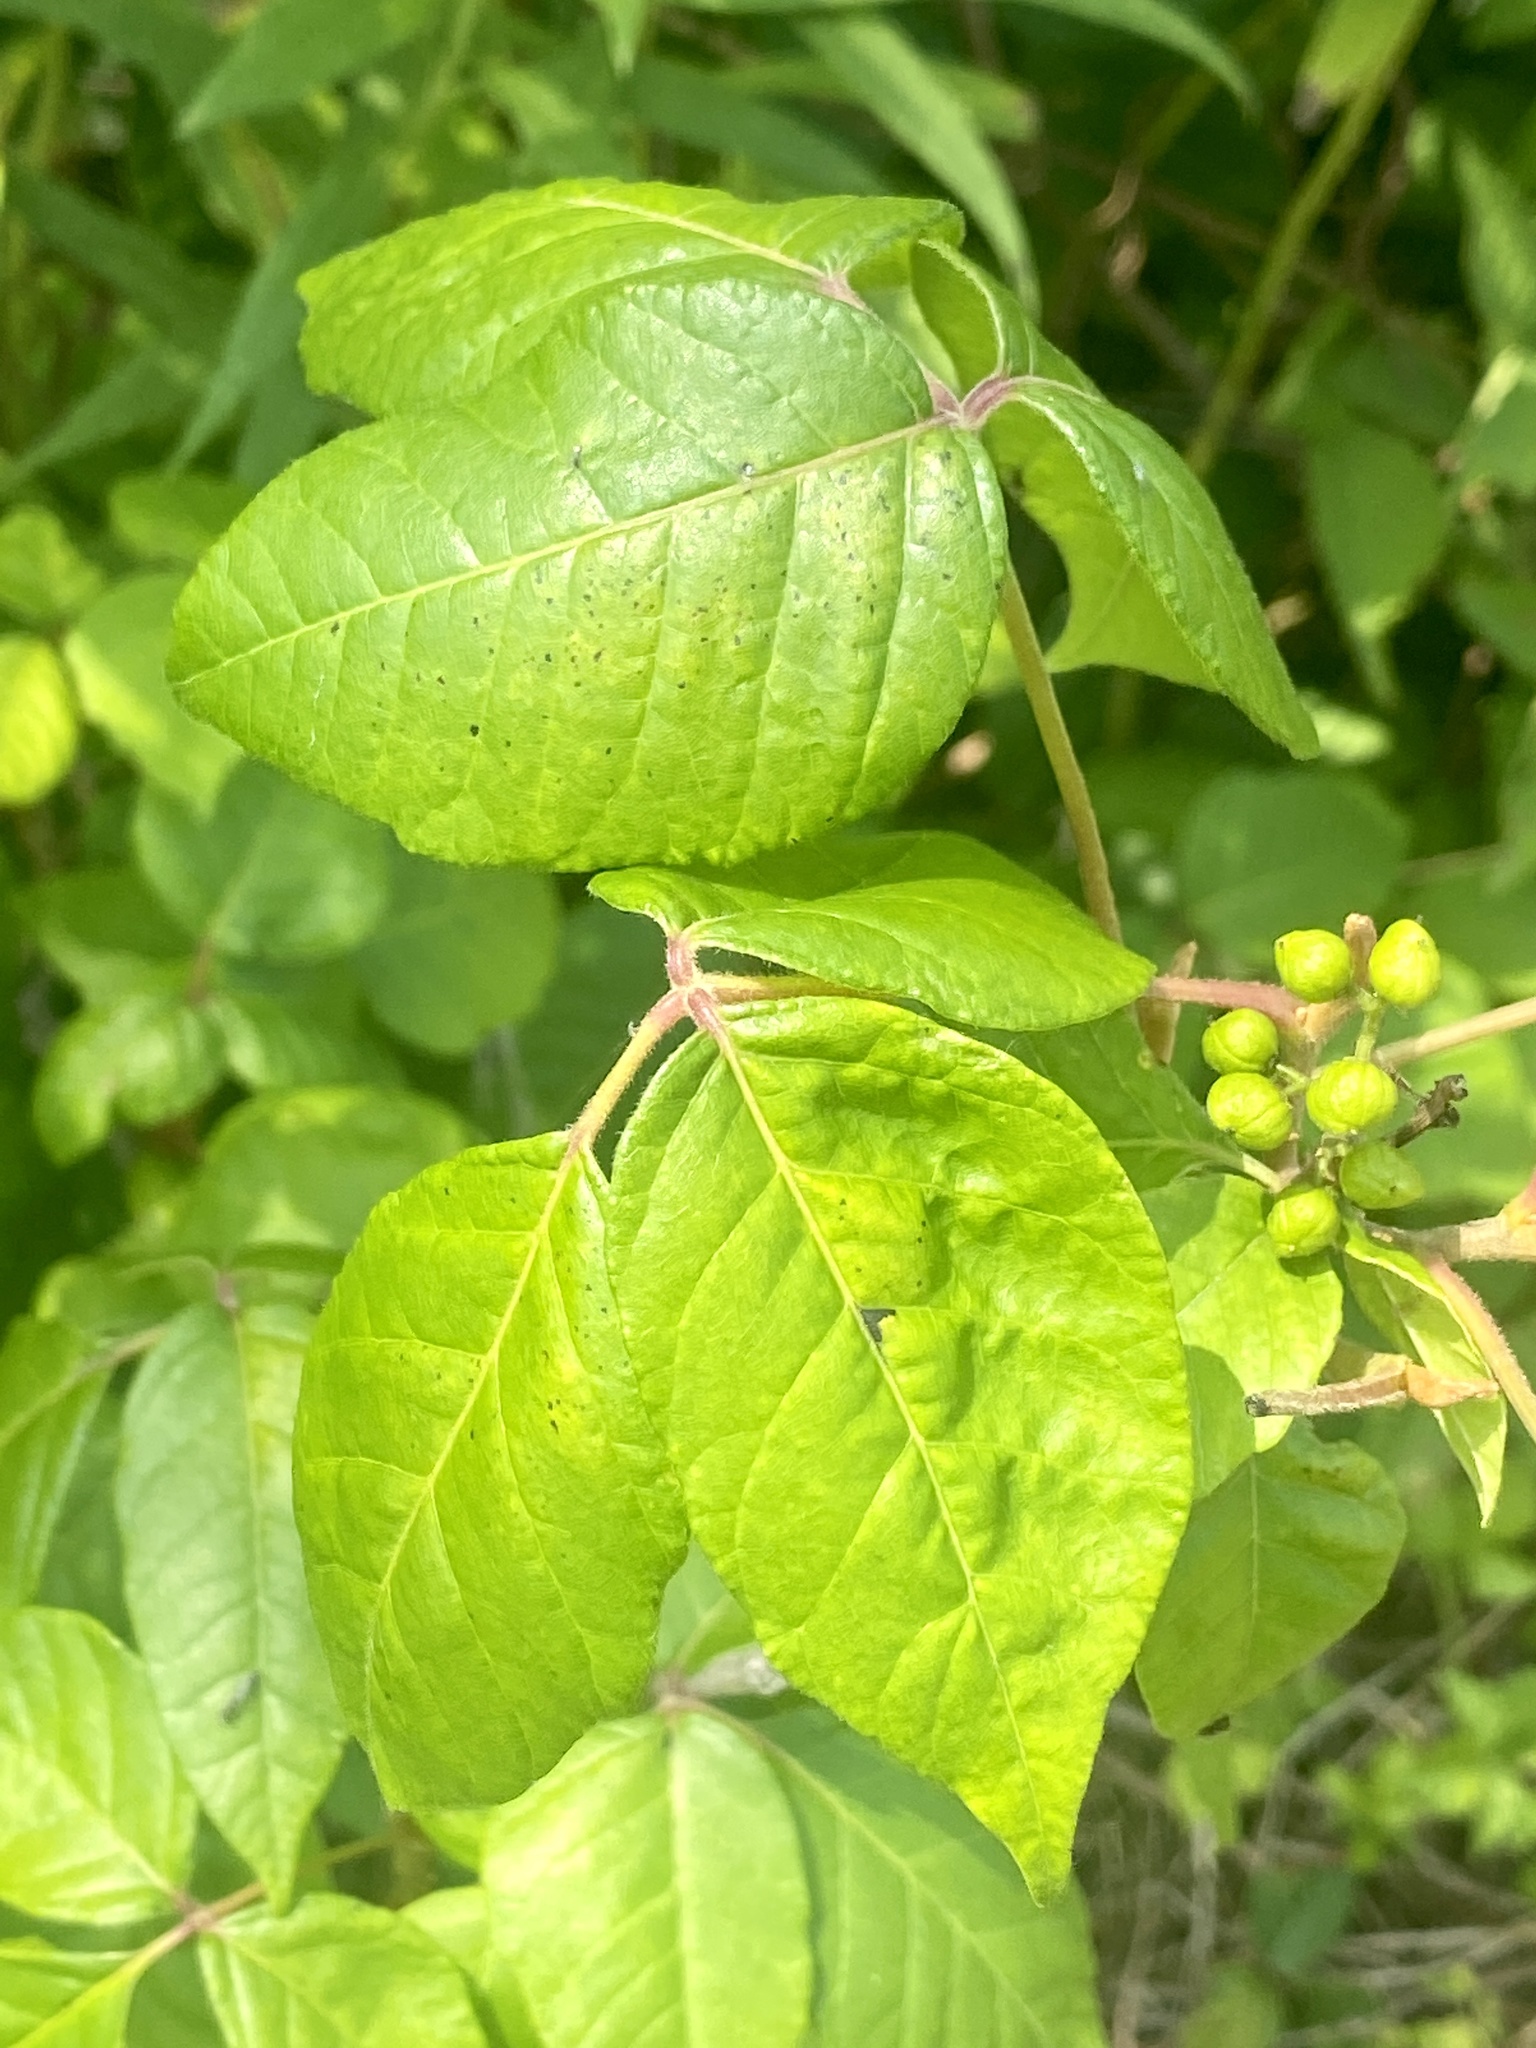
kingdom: Plantae
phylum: Tracheophyta
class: Magnoliopsida
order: Sapindales
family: Anacardiaceae
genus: Toxicodendron
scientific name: Toxicodendron radicans
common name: Poison ivy
